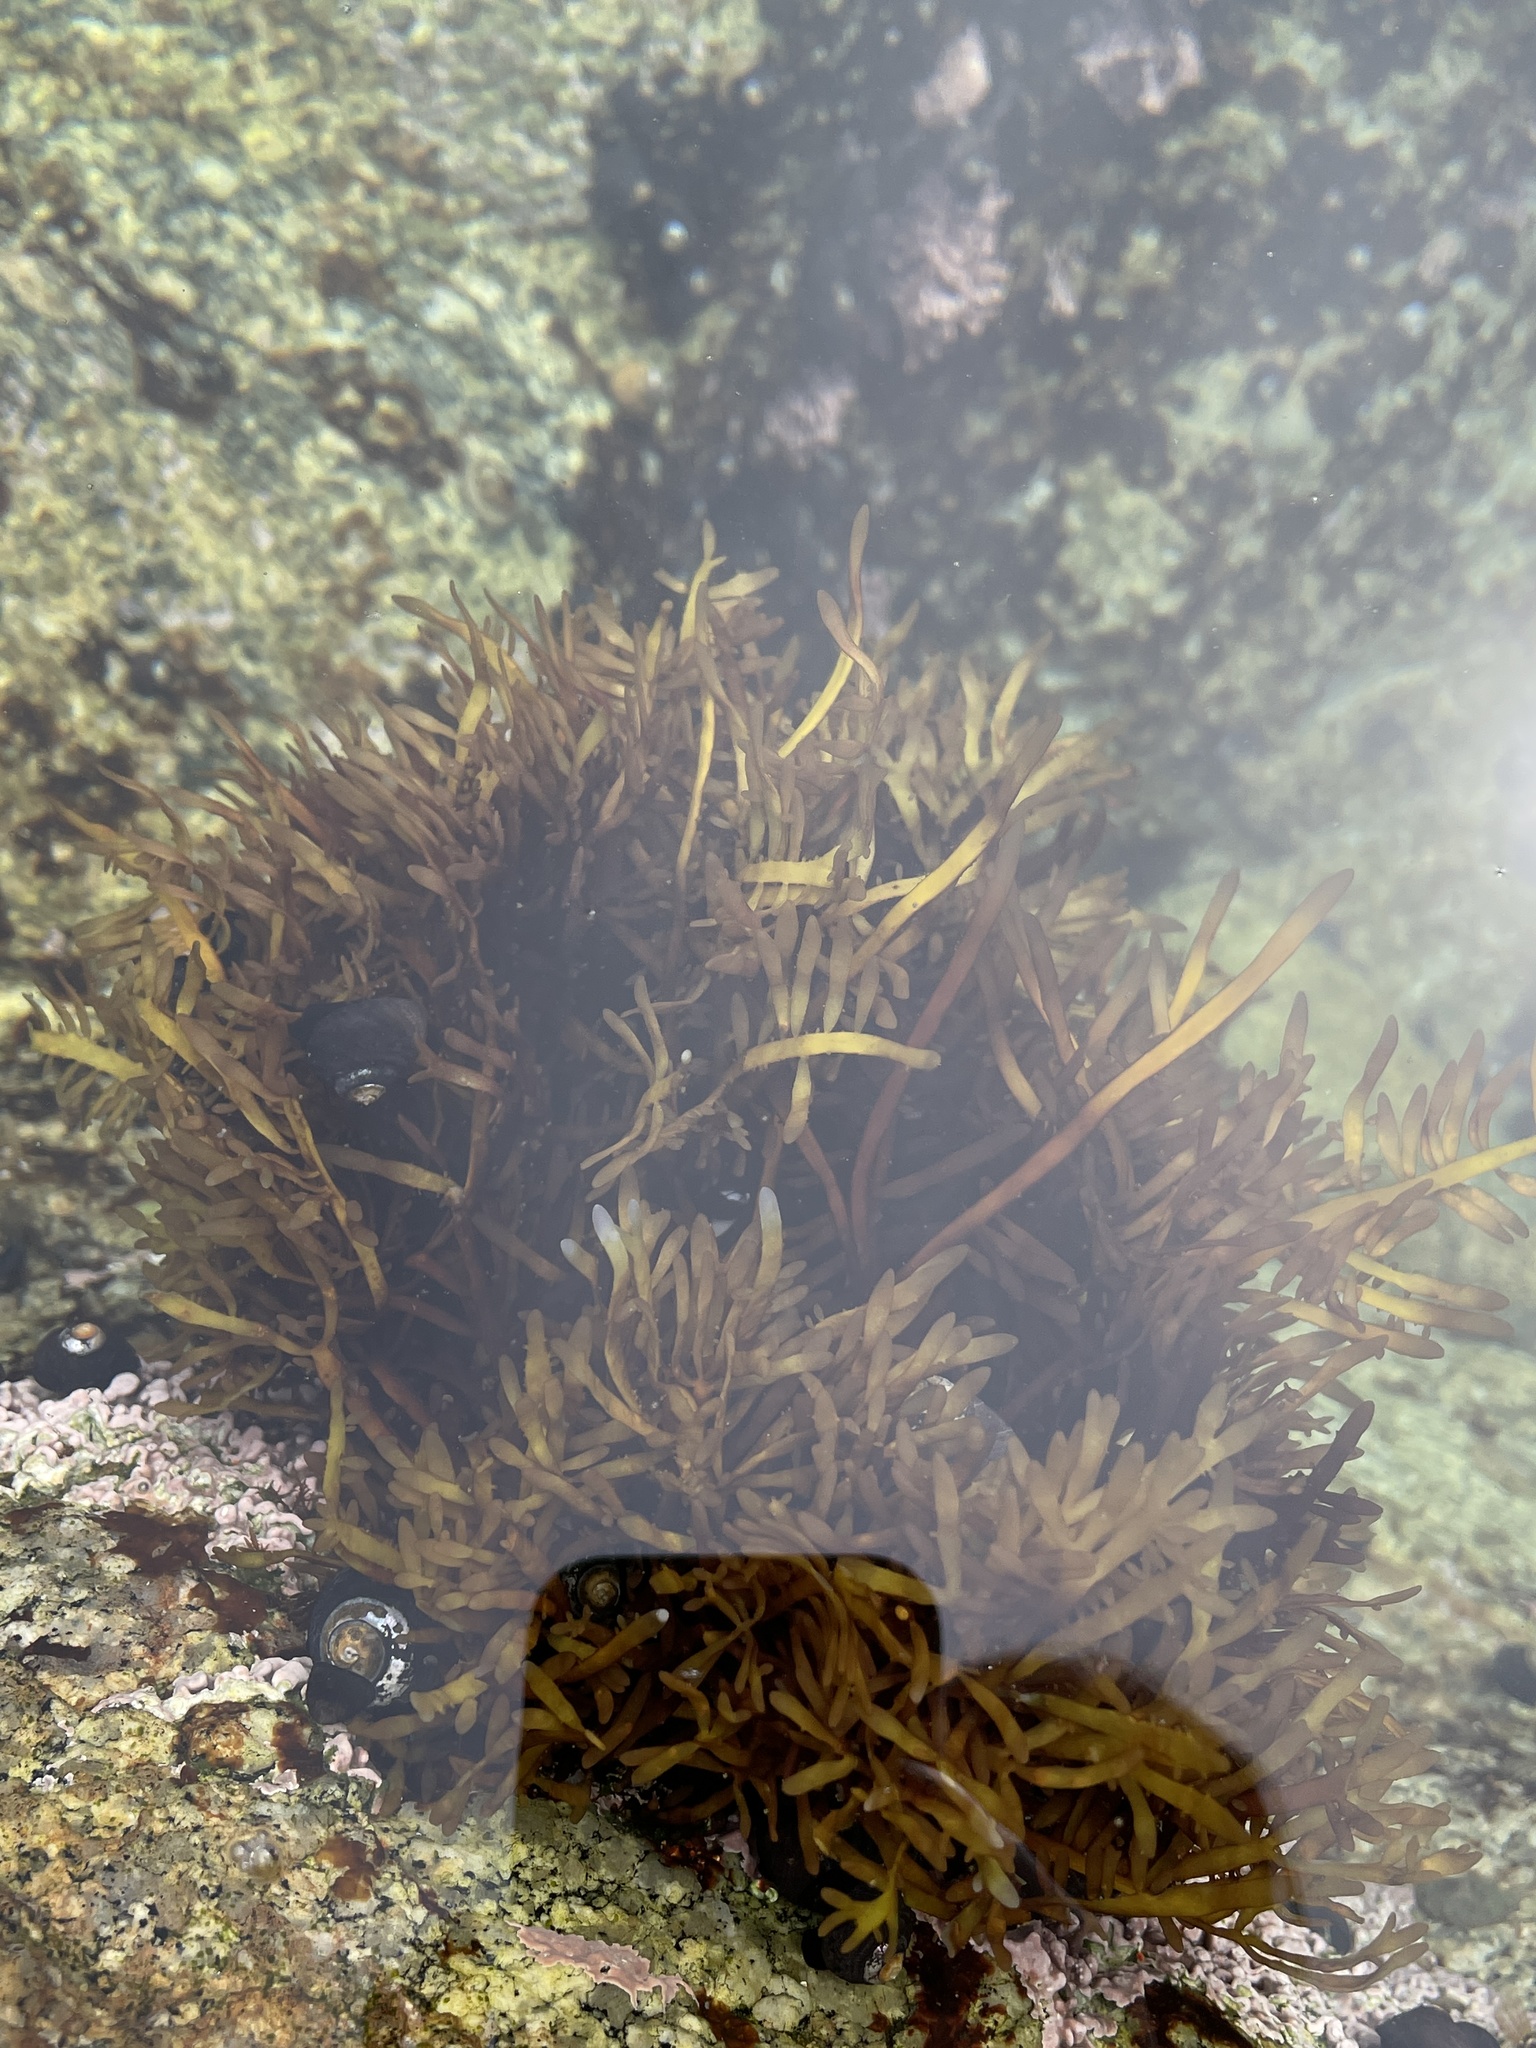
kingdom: Plantae
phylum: Rhodophyta
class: Florideophyceae
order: Halymeniales
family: Halymeniaceae
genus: Grateloupia
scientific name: Grateloupia Prionitis lanceolata
